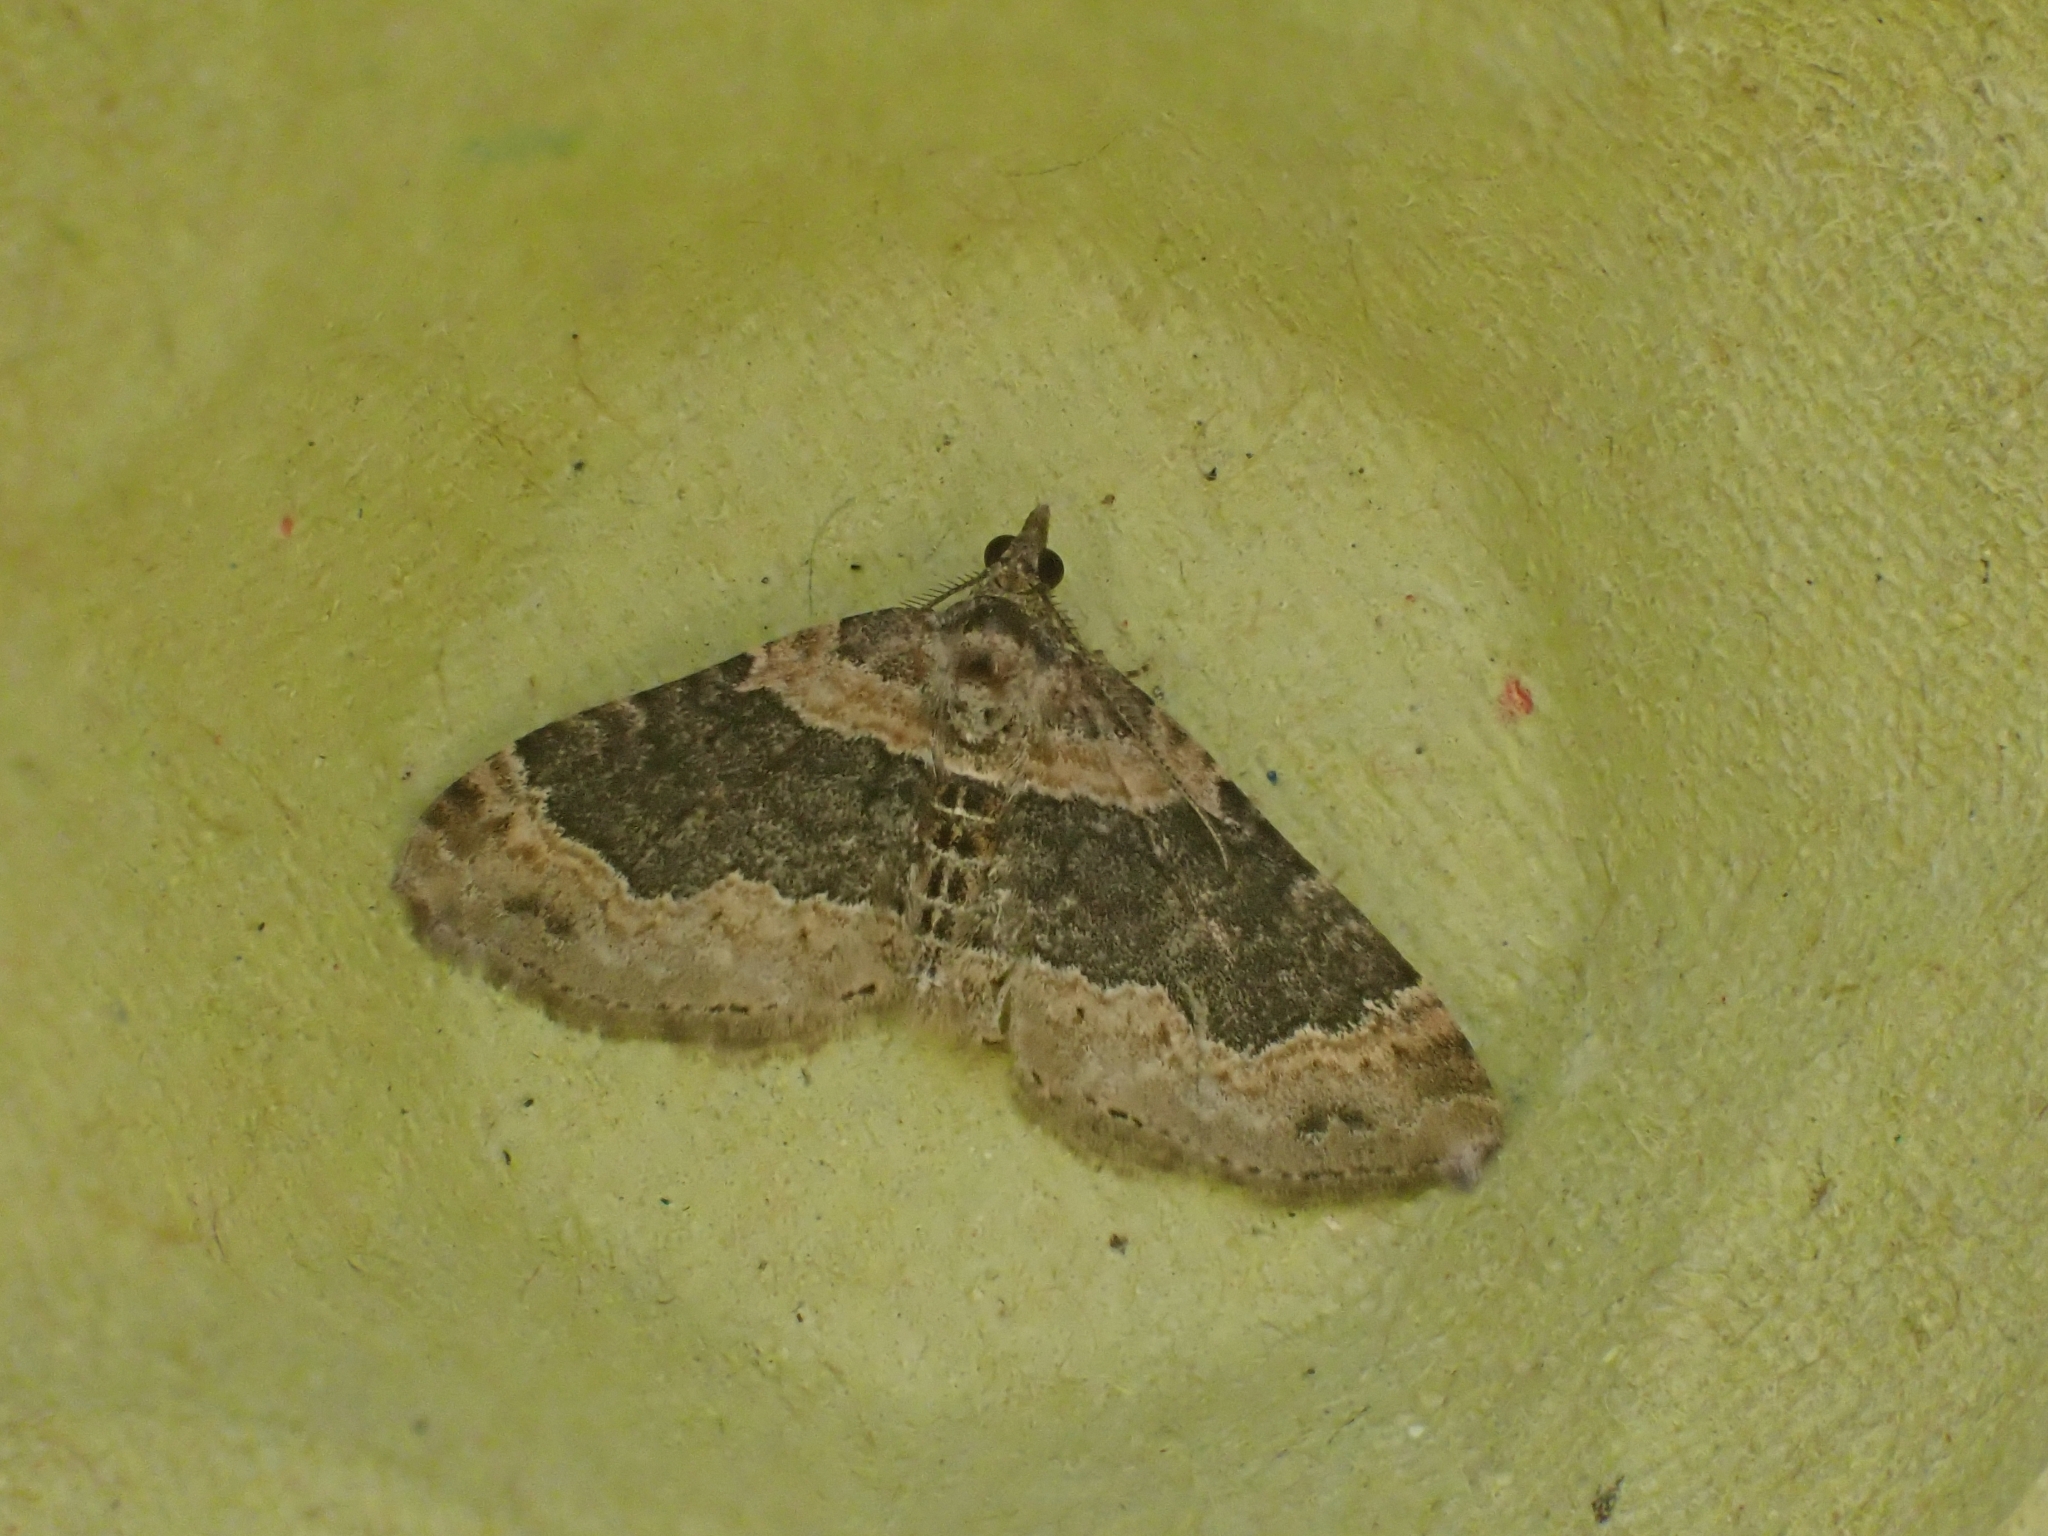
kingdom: Animalia
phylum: Arthropoda
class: Insecta
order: Lepidoptera
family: Geometridae
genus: Xanthorhoe
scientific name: Xanthorhoe ferrugata
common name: Dark-barred twin-spot carpet
